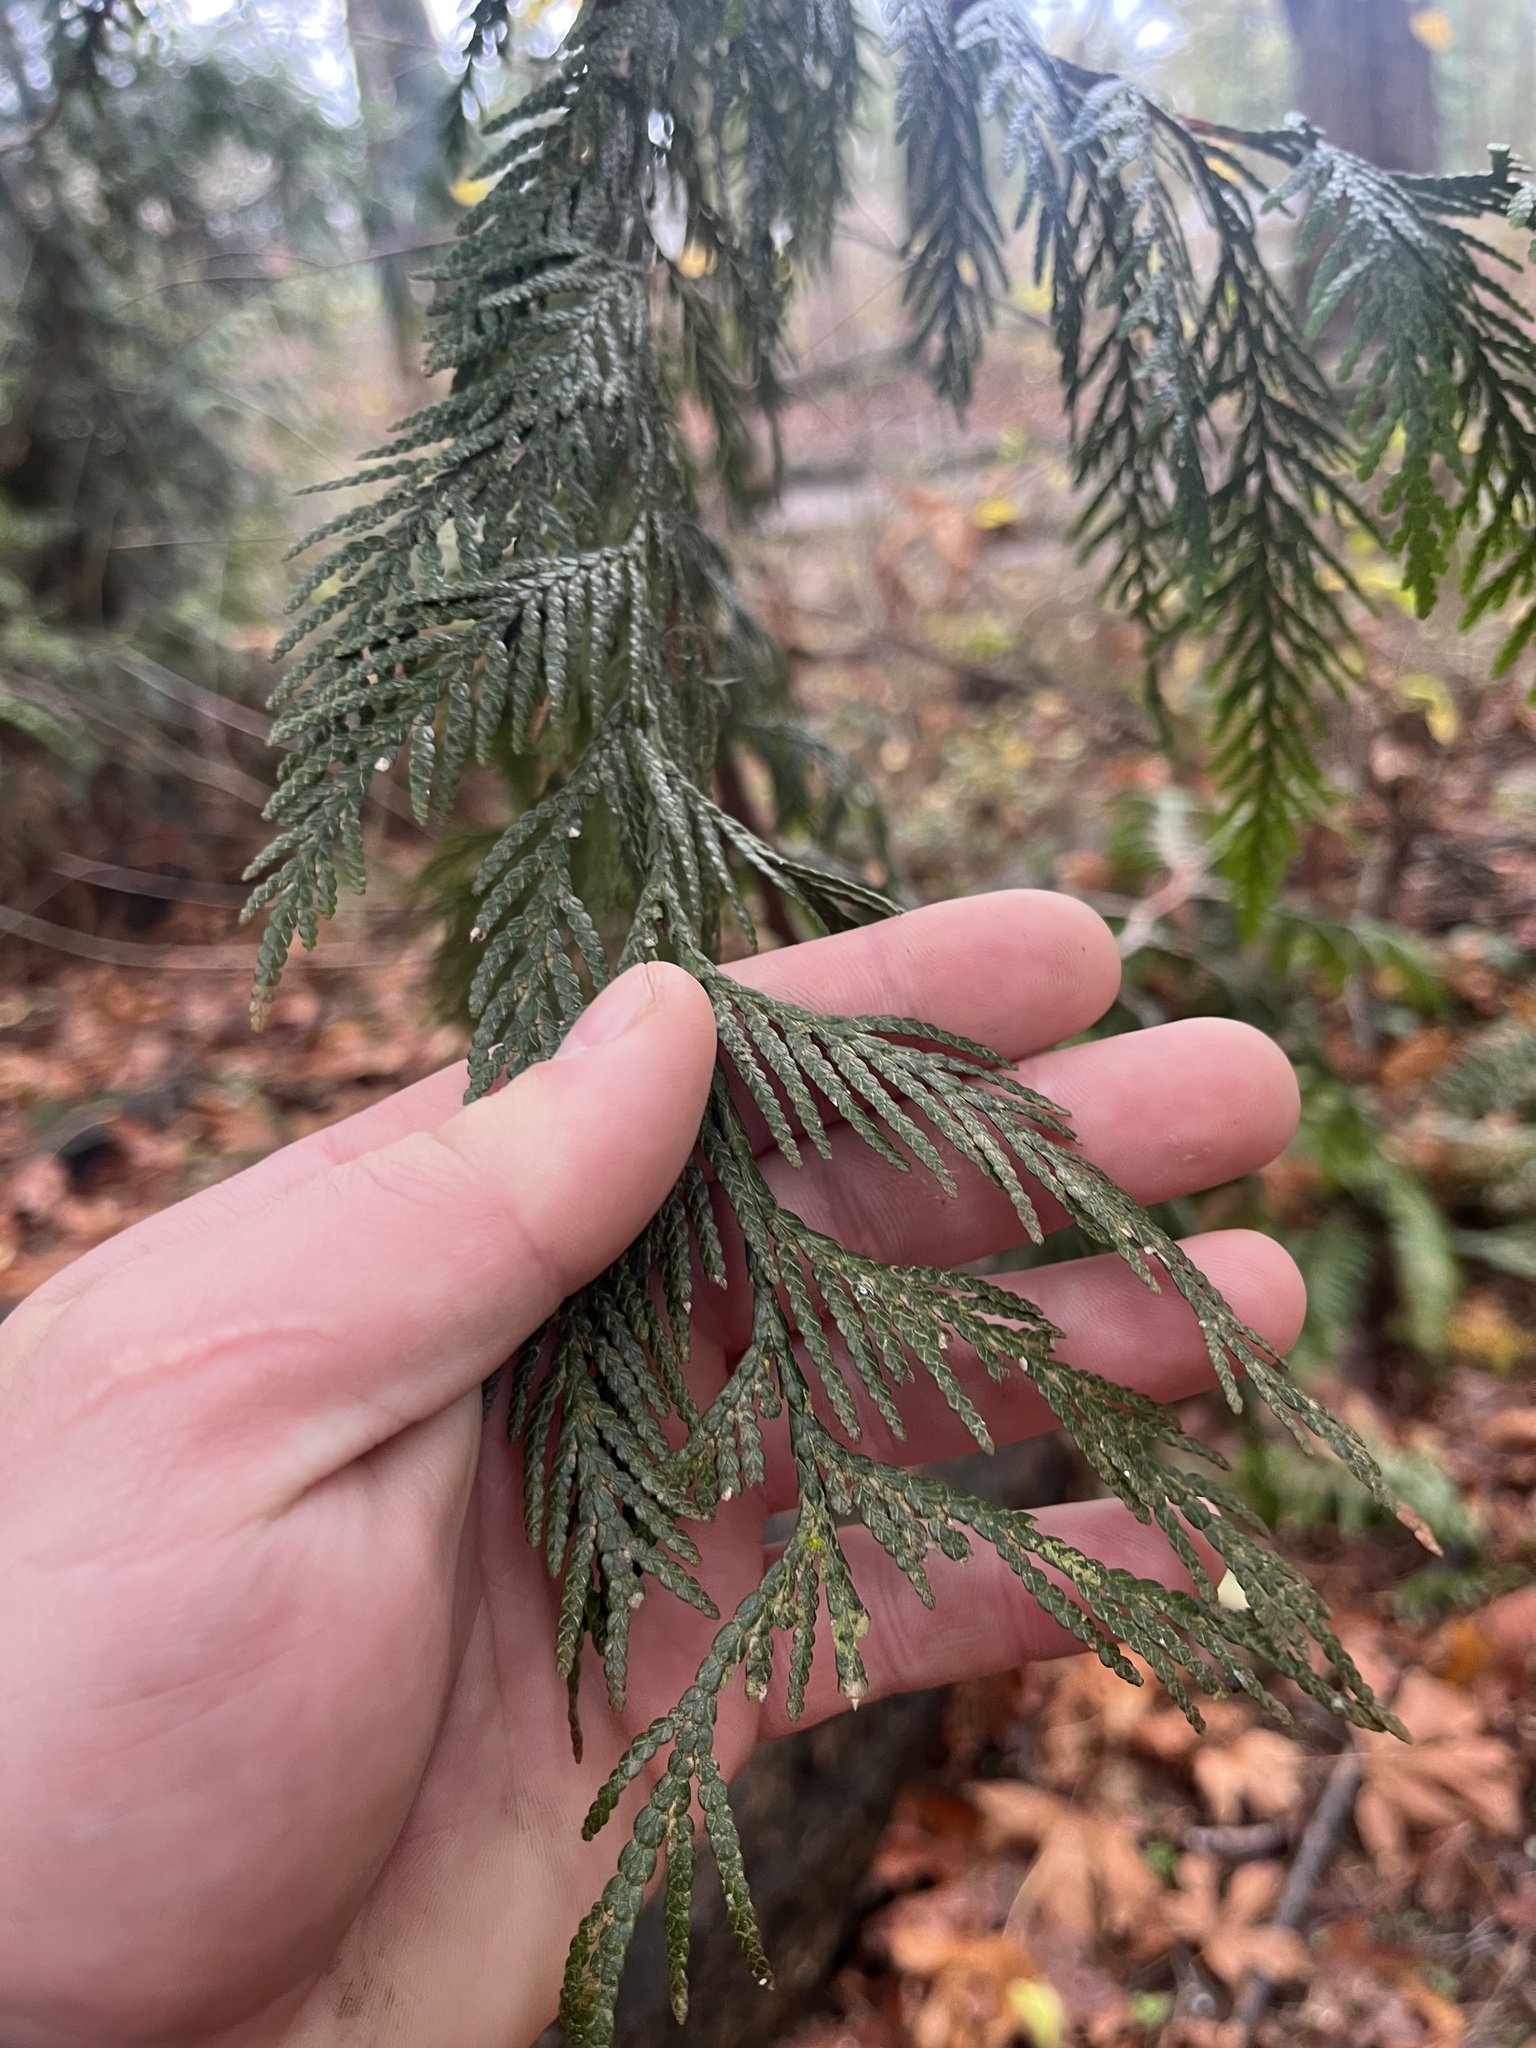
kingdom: Plantae
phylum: Tracheophyta
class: Pinopsida
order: Pinales
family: Cupressaceae
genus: Thuja
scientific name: Thuja plicata
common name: Western red-cedar
